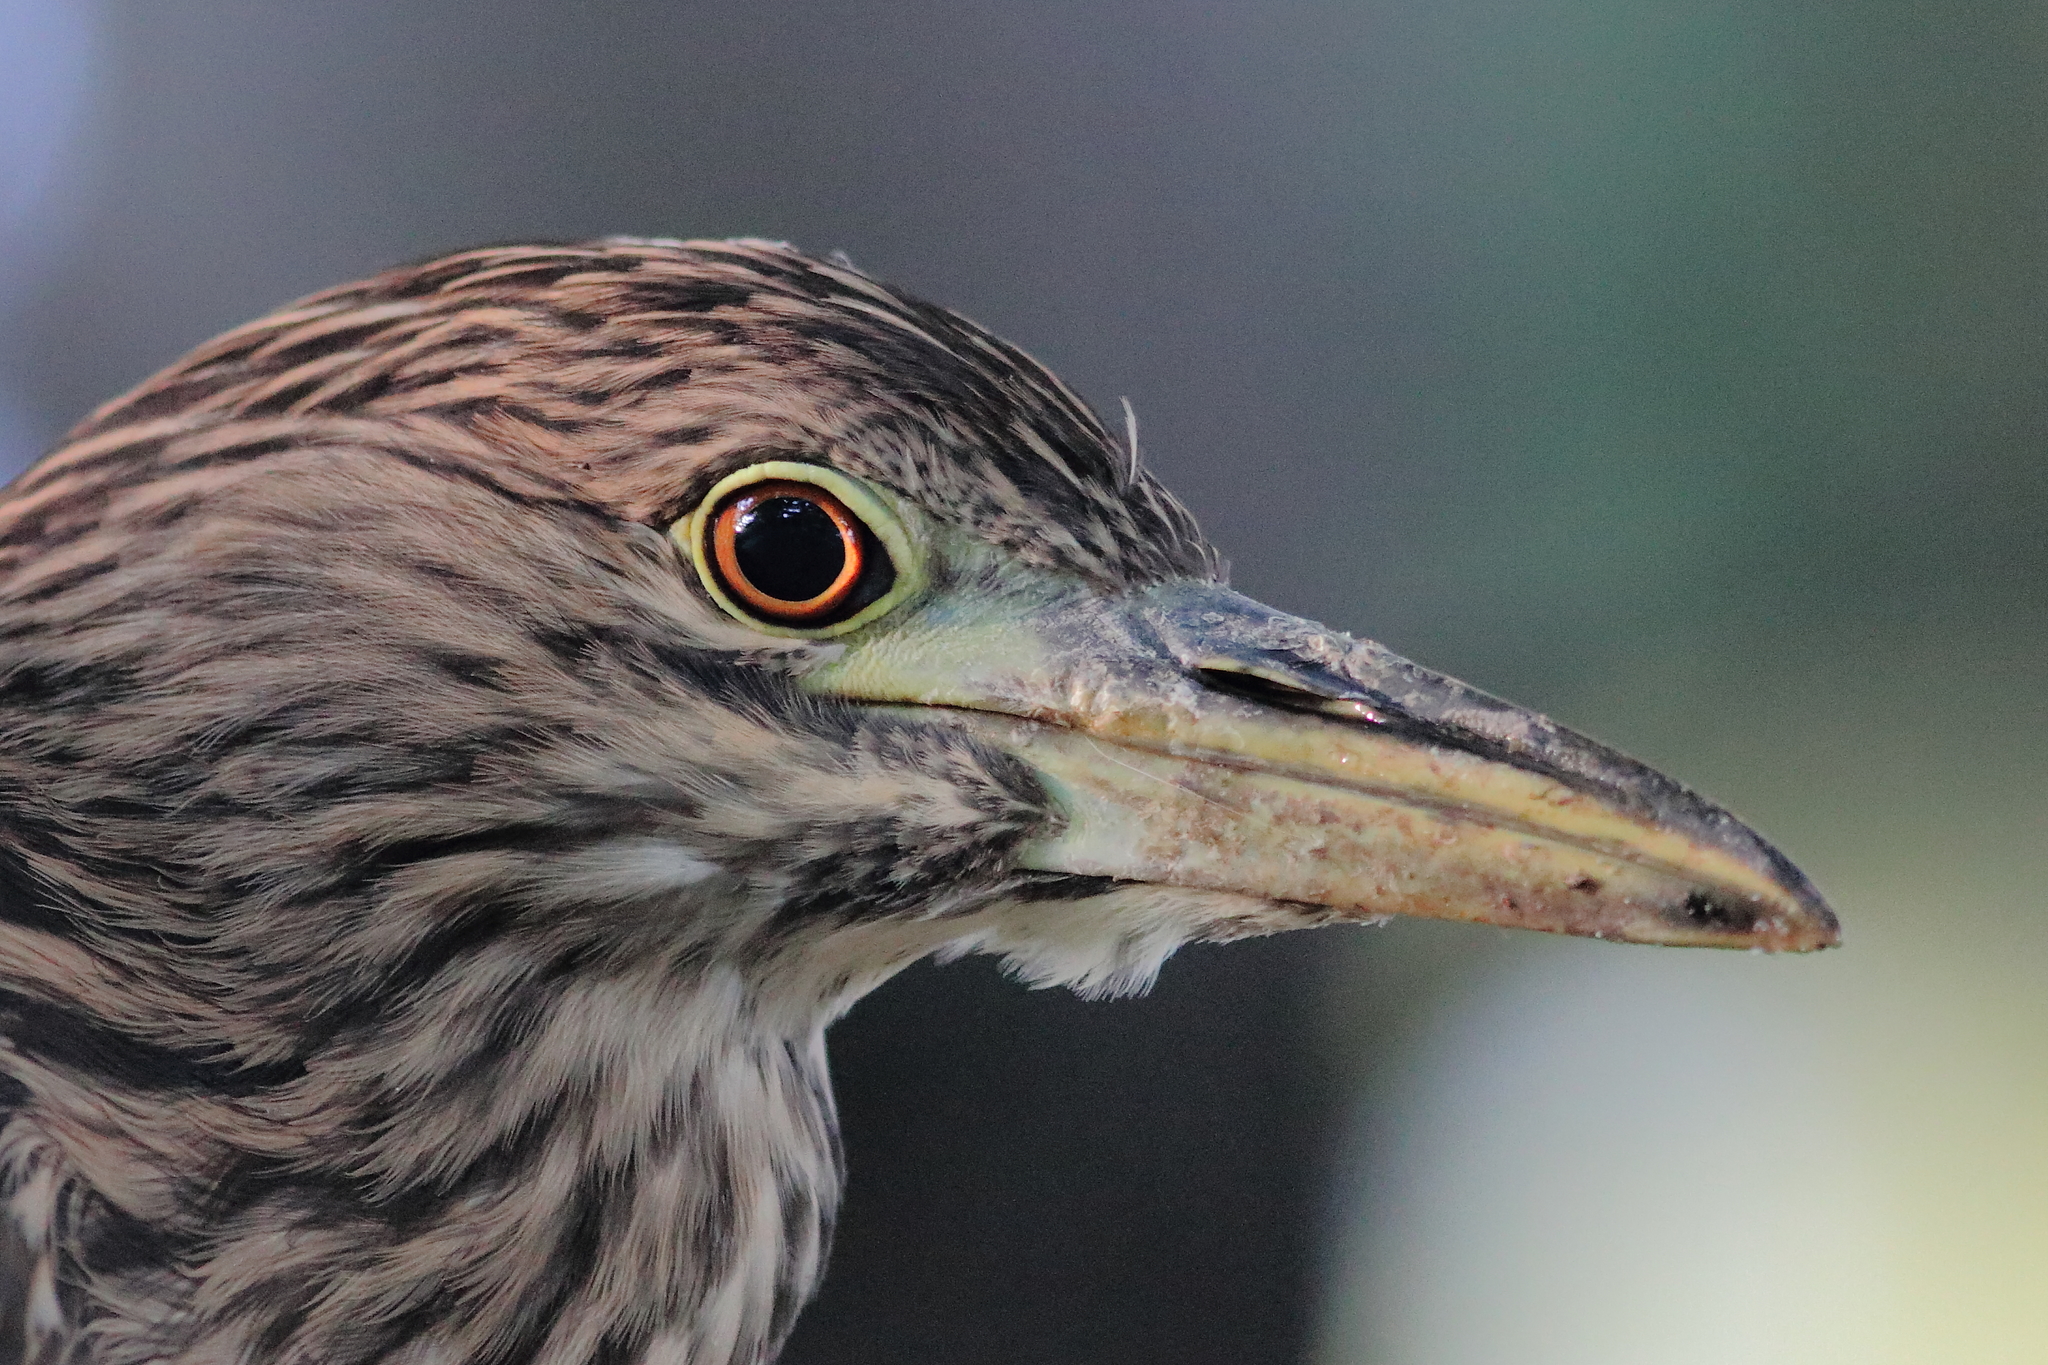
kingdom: Animalia
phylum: Chordata
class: Aves
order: Pelecaniformes
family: Ardeidae
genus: Nycticorax
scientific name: Nycticorax nycticorax
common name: Black-crowned night heron
